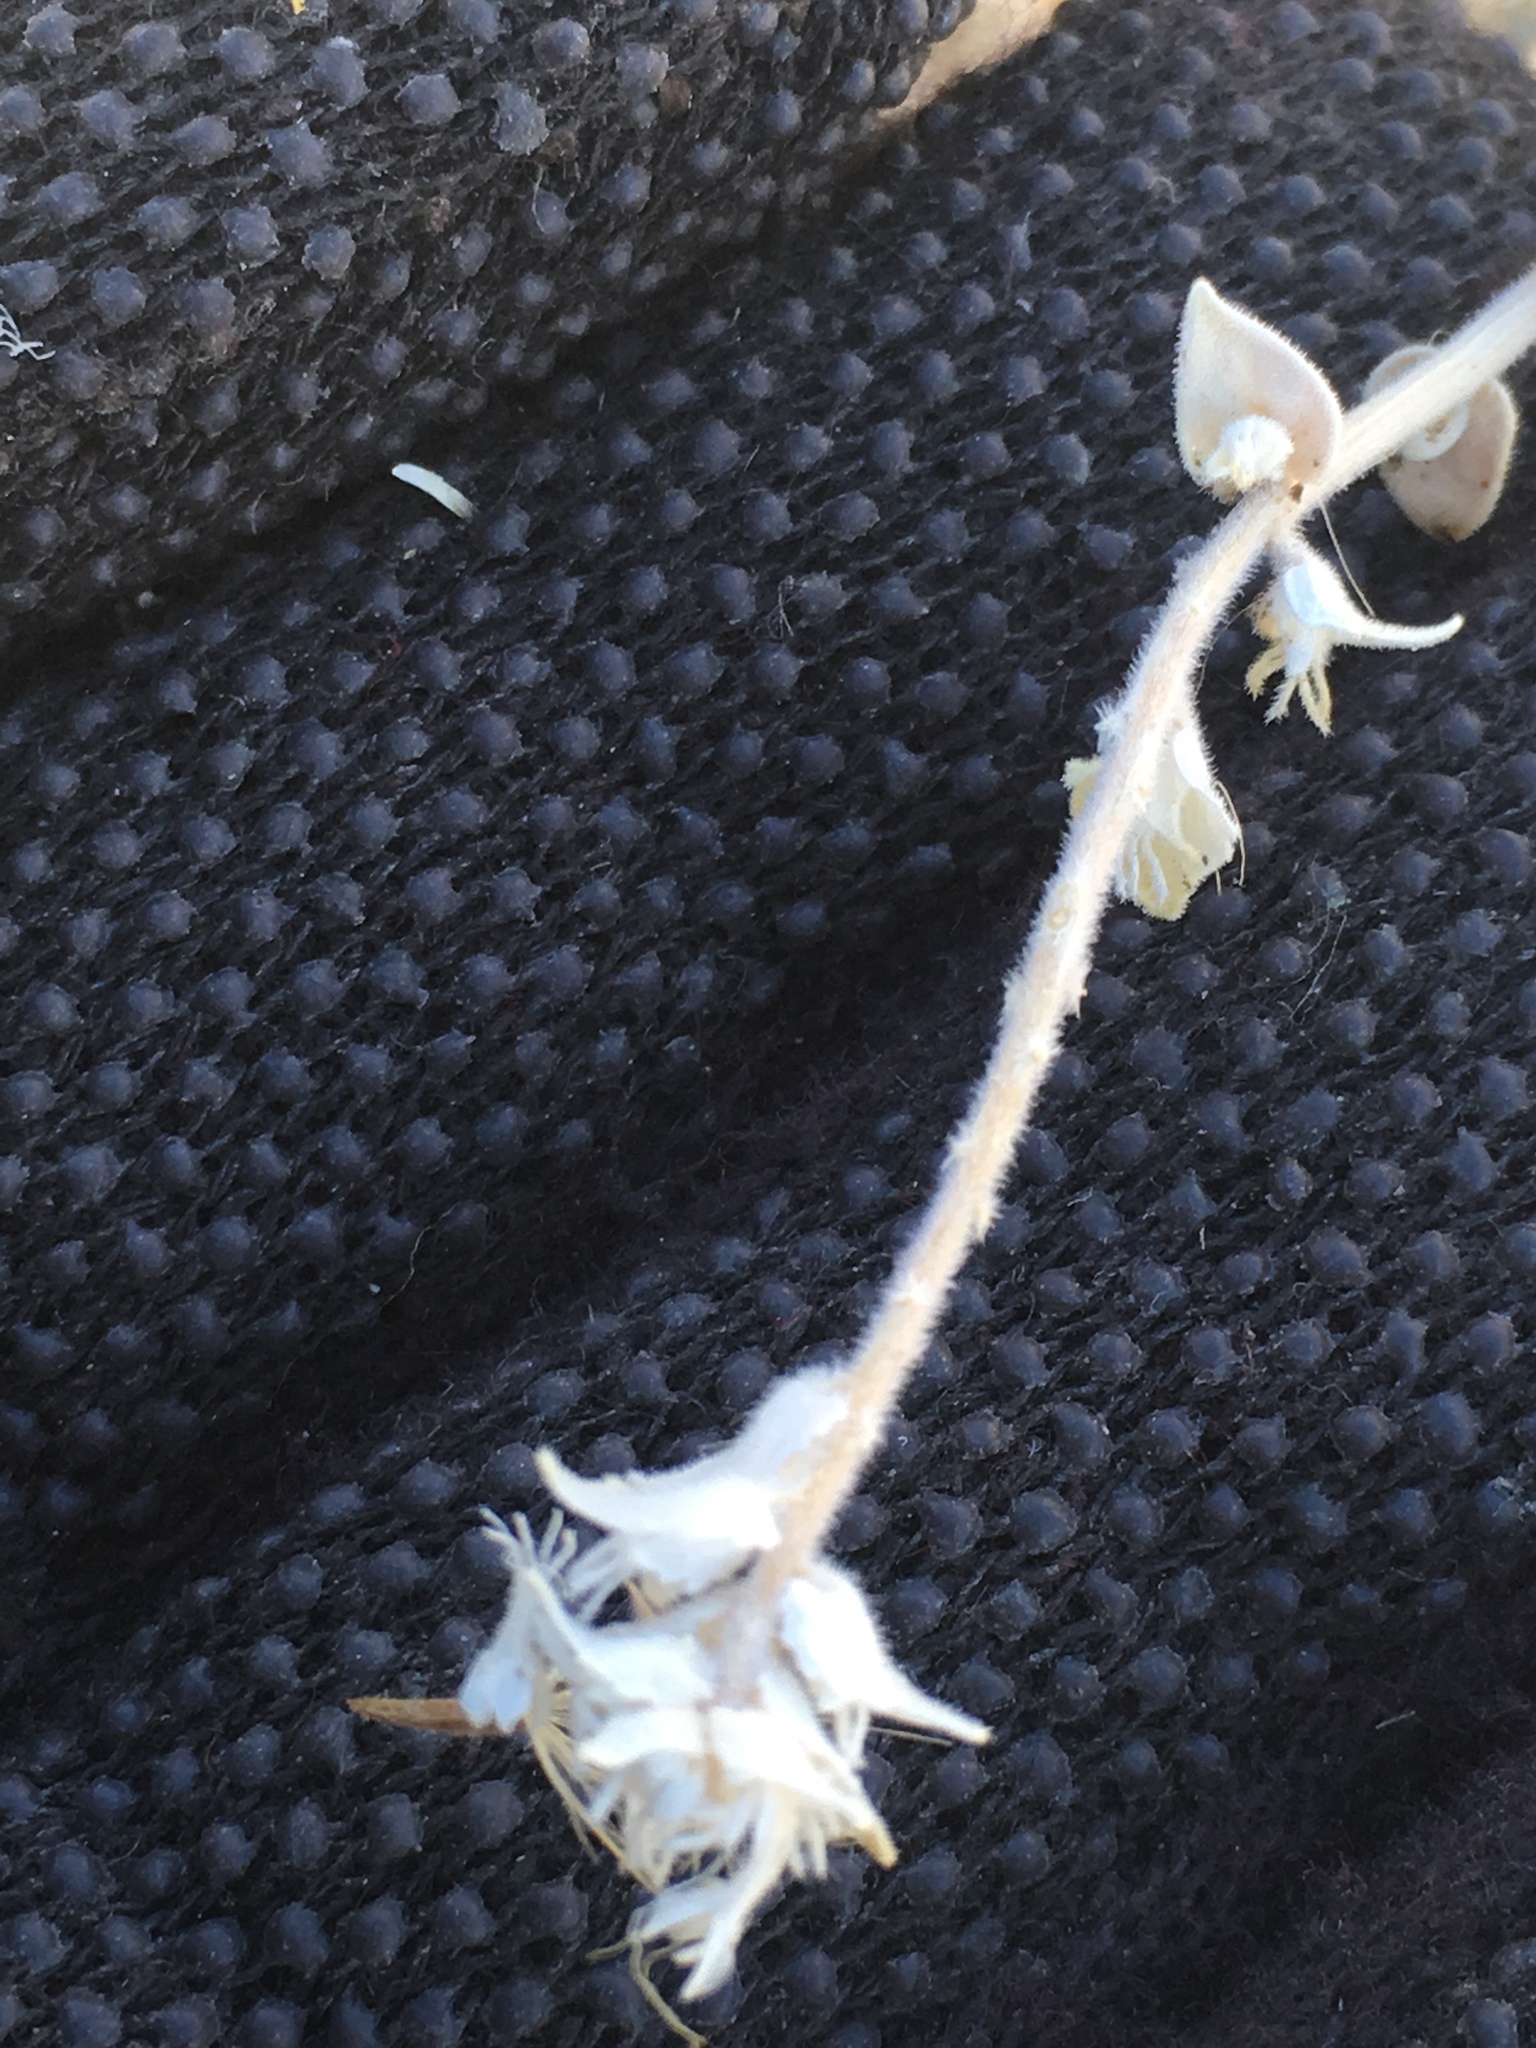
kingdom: Plantae
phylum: Tracheophyta
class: Magnoliopsida
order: Cornales
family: Loasaceae
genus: Petalonyx
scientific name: Petalonyx thurberi
